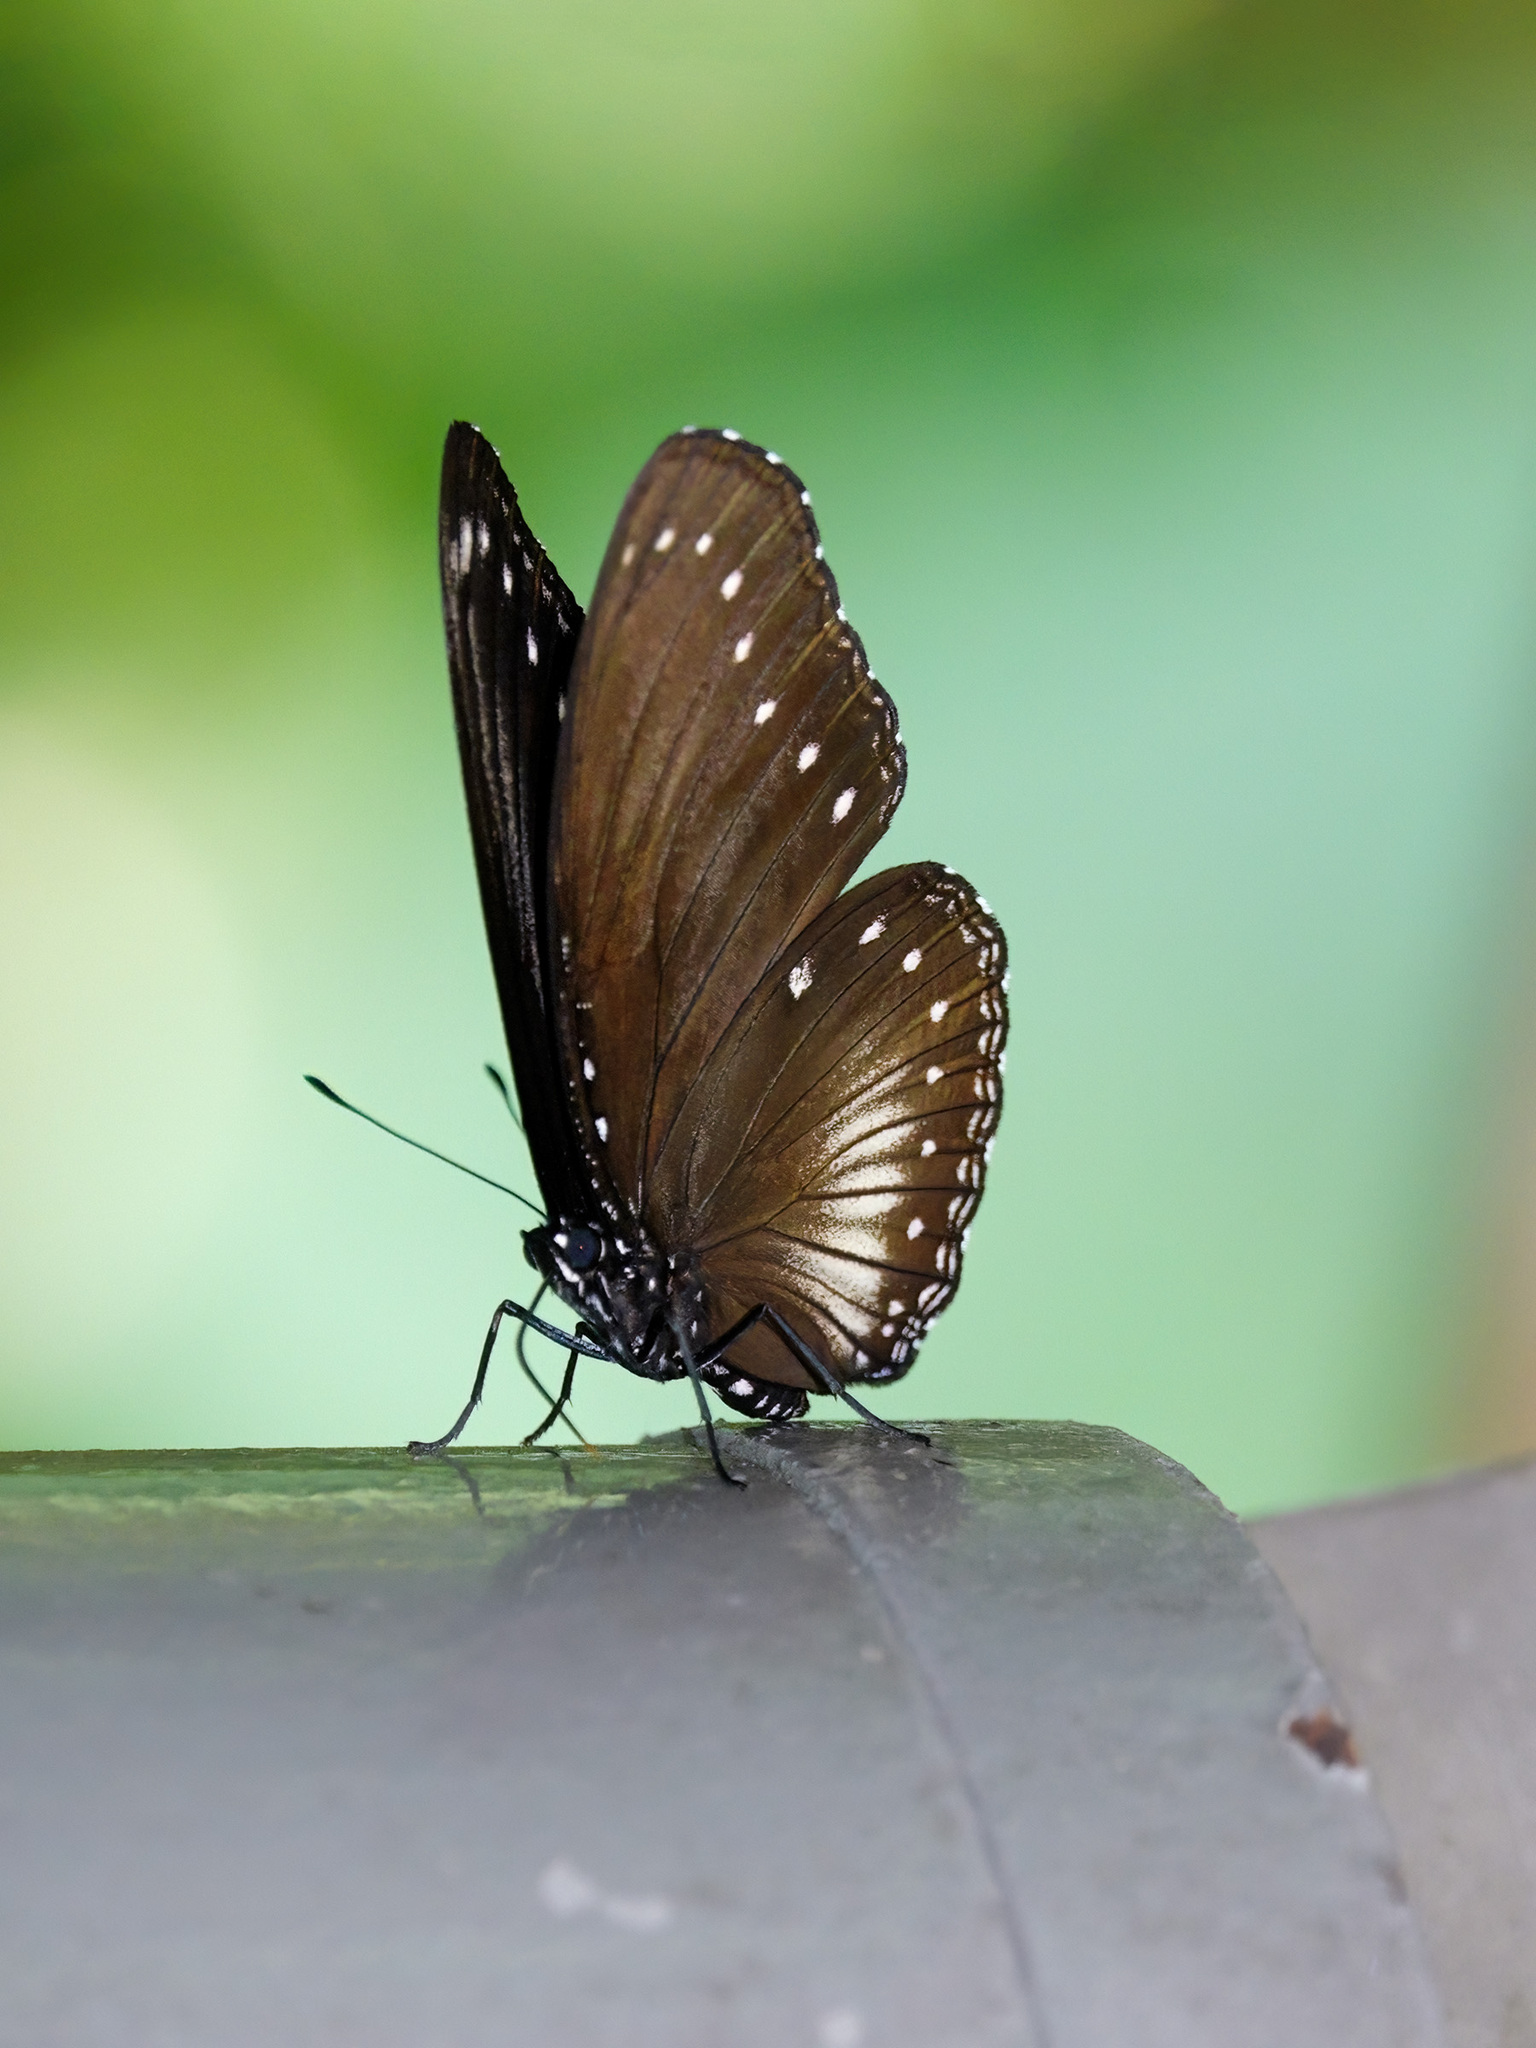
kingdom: Animalia
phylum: Arthropoda
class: Insecta
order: Lepidoptera
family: Nymphalidae
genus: Hypolimnas
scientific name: Hypolimnas anomala
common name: Malayan eggfly
